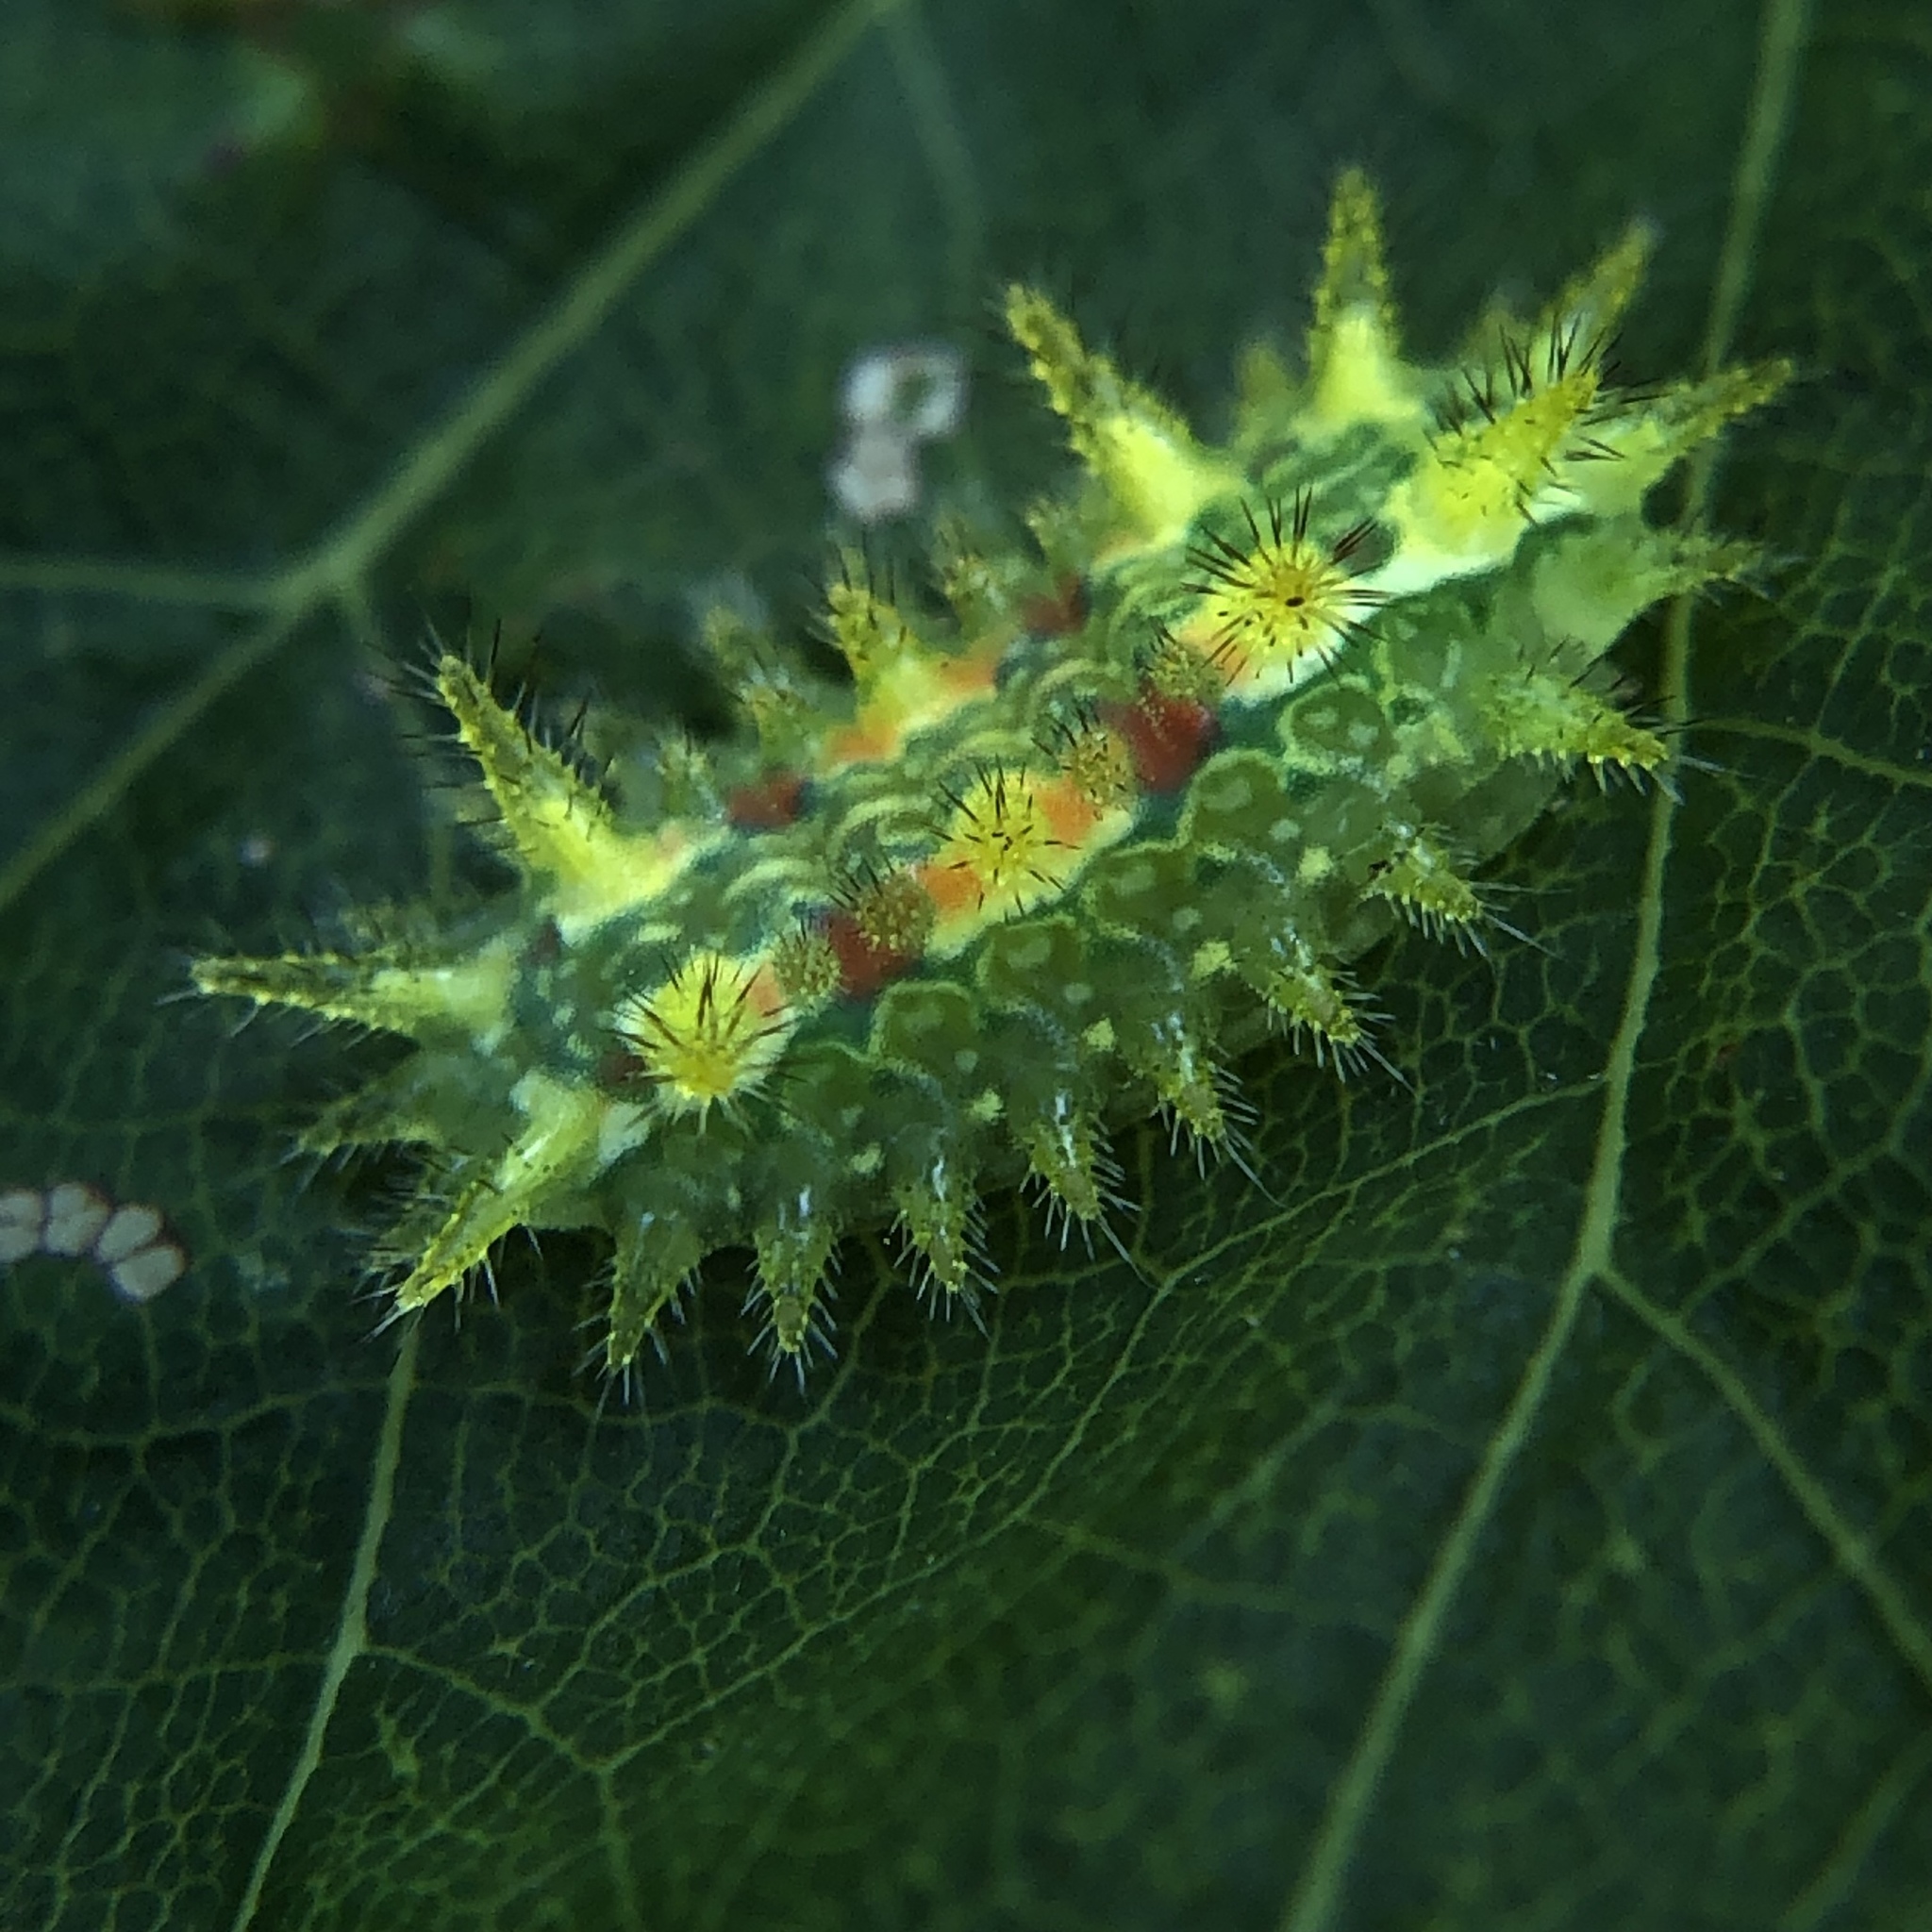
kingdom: Animalia
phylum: Arthropoda
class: Insecta
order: Lepidoptera
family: Limacodidae
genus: Euclea
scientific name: Euclea delphinii
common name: Spiny oak-slug moth
